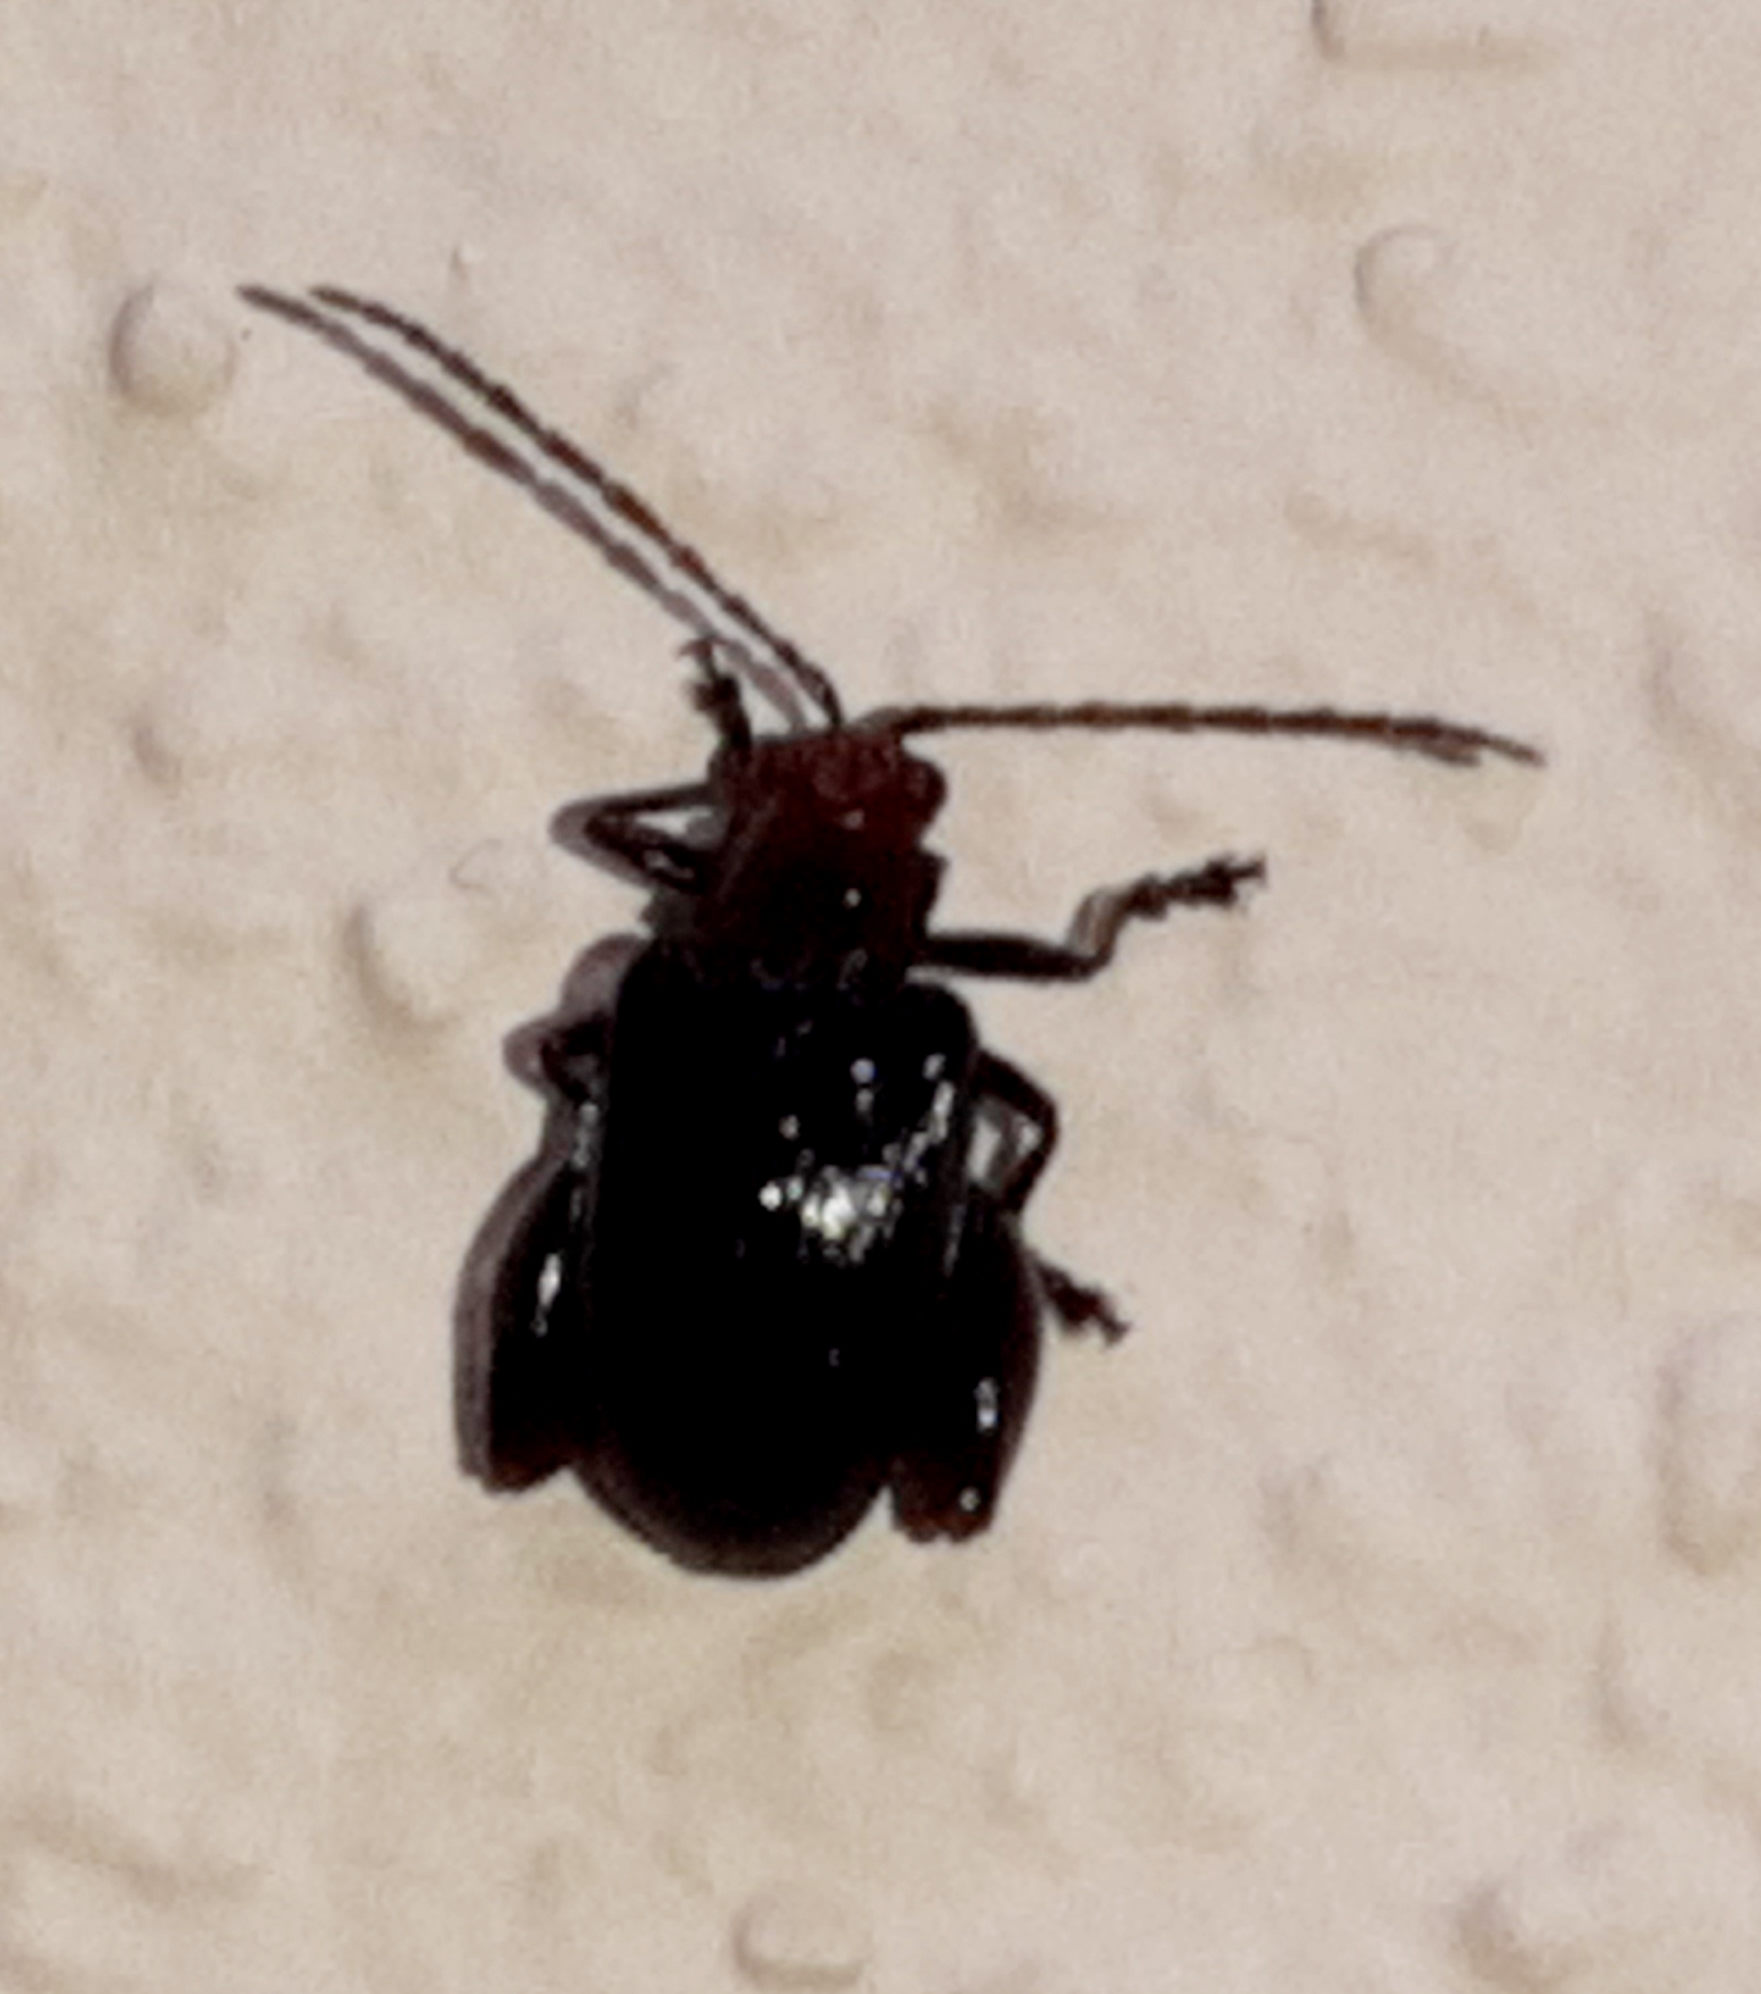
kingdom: Animalia
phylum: Arthropoda
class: Insecta
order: Coleoptera
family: Chrysomelidae
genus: Allochroma
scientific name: Allochroma
